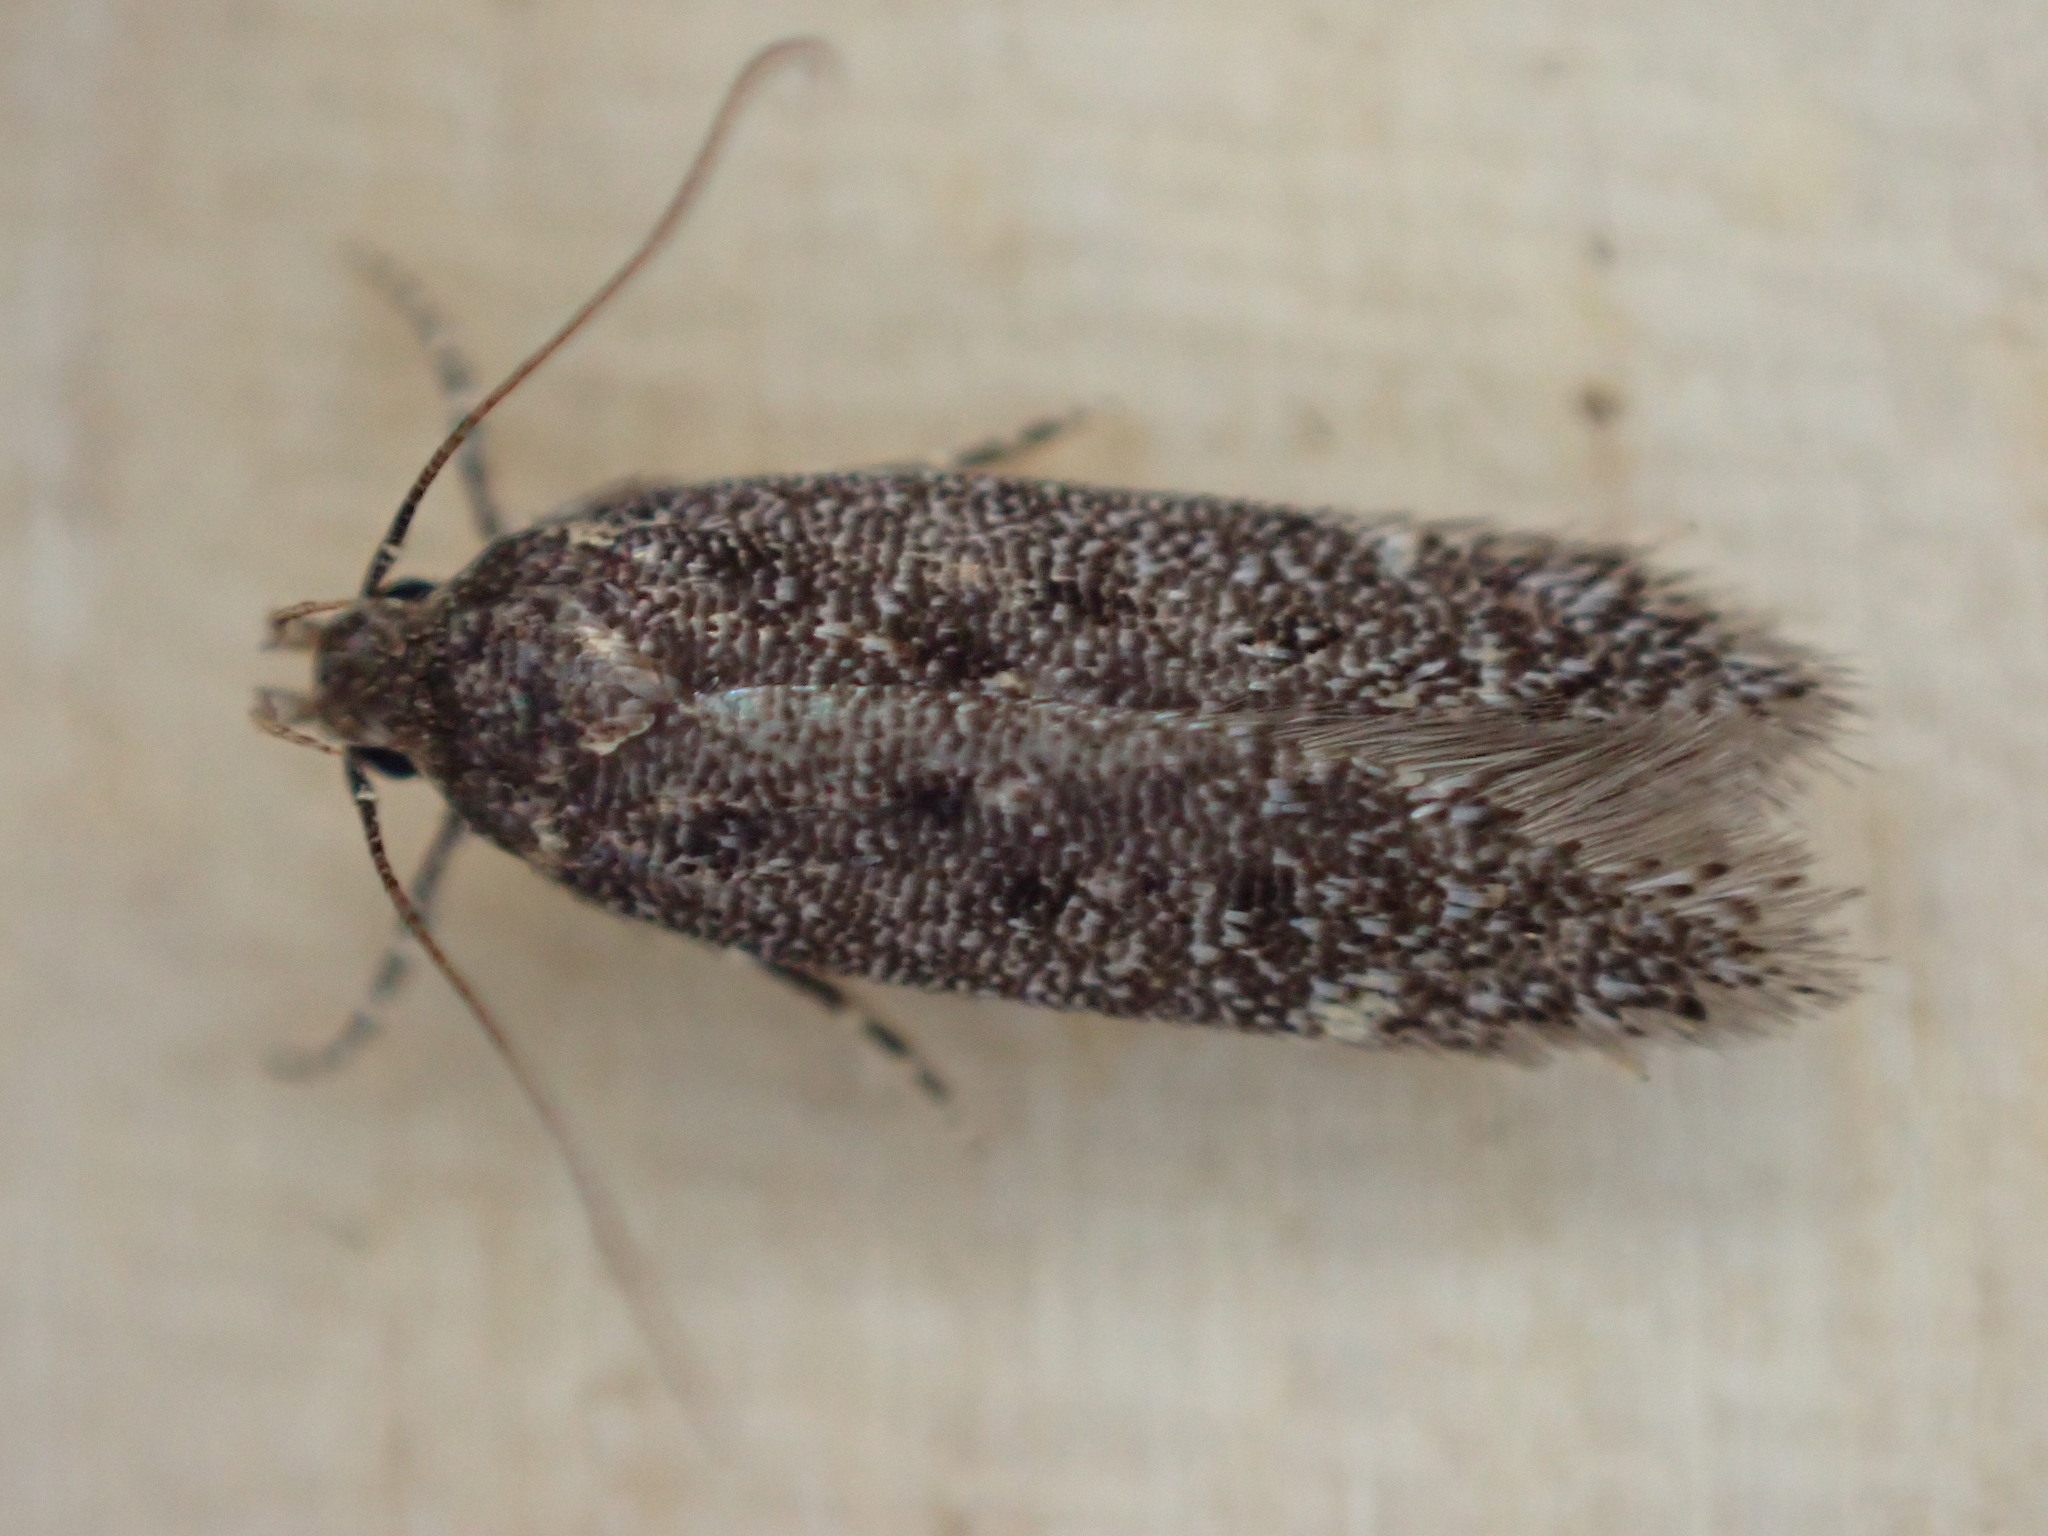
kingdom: Animalia
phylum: Arthropoda
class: Insecta
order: Lepidoptera
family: Gelechiidae
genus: Bryotropha
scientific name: Bryotropha affinis
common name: Dark groundling
